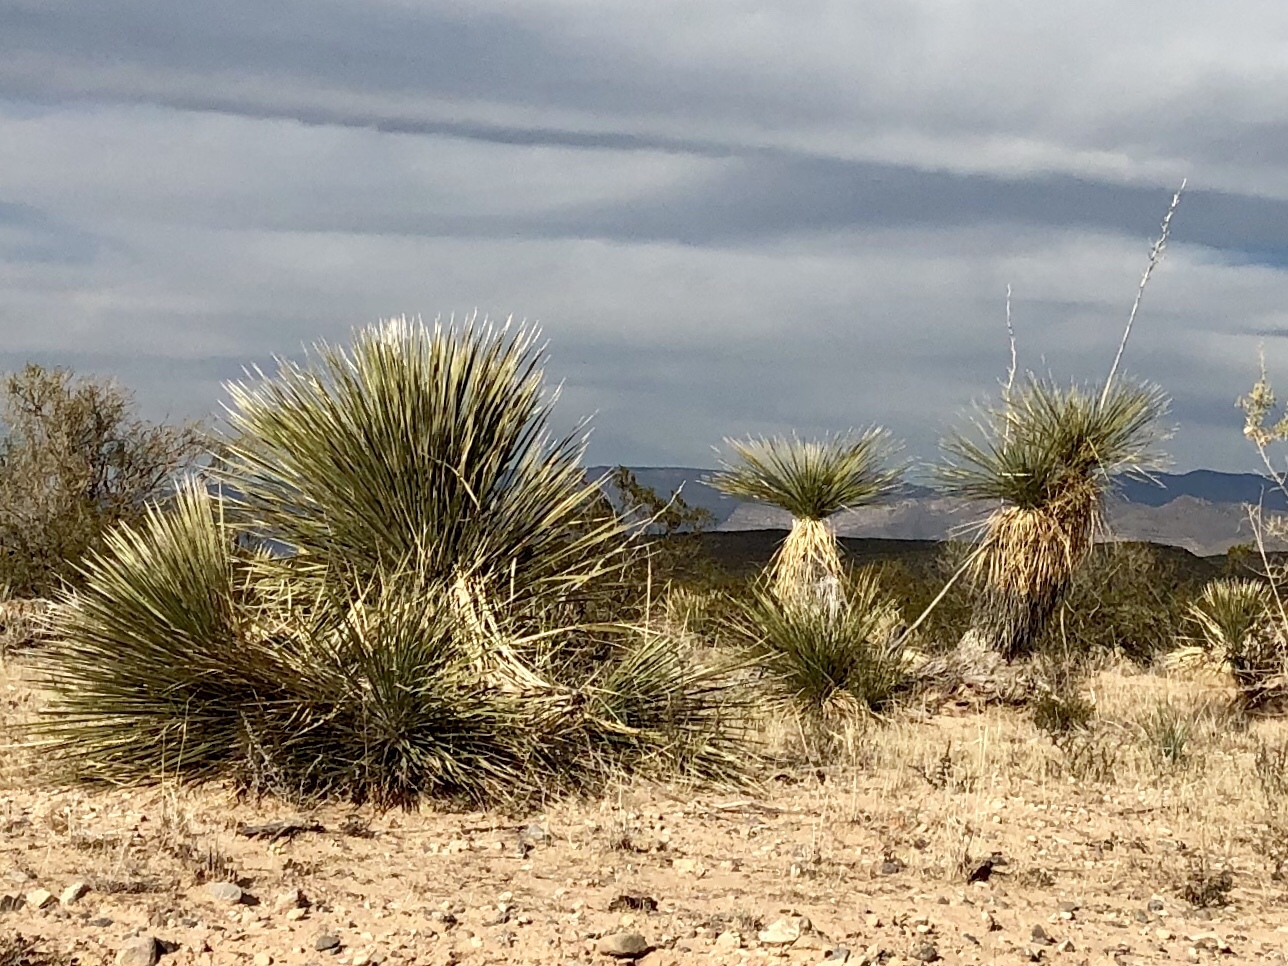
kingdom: Plantae
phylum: Tracheophyta
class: Liliopsida
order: Asparagales
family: Asparagaceae
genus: Yucca
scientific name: Yucca elata
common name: Palmella
